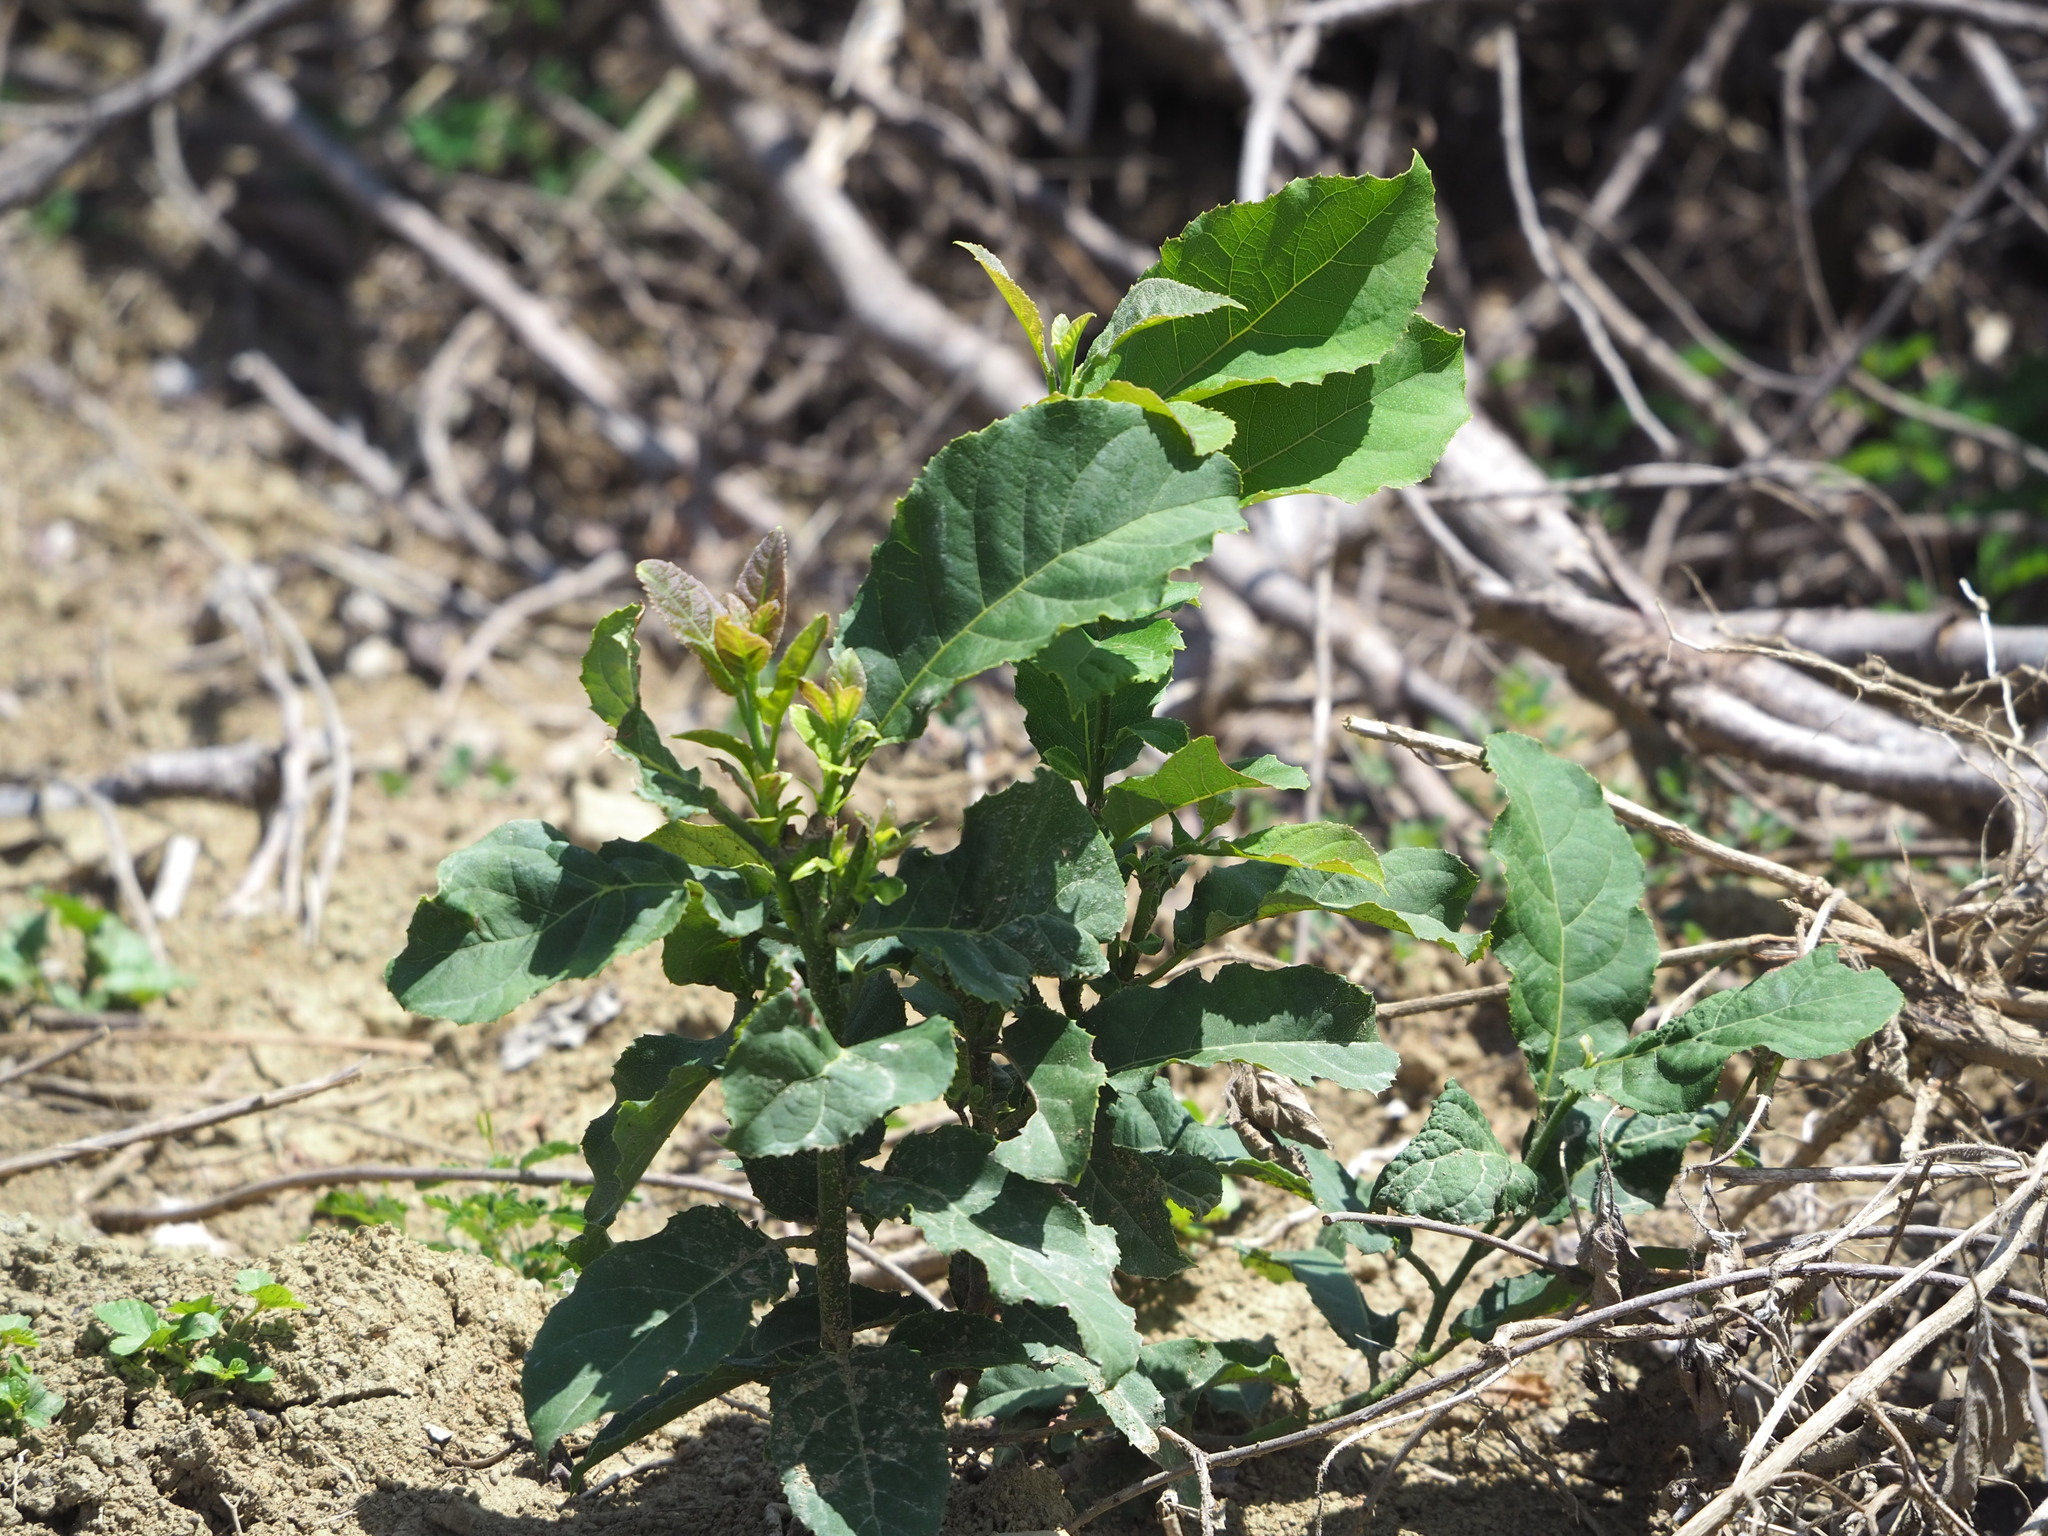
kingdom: Plantae
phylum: Tracheophyta
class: Magnoliopsida
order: Brassicales
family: Capparaceae
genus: Capparis
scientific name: Capparis henryi
